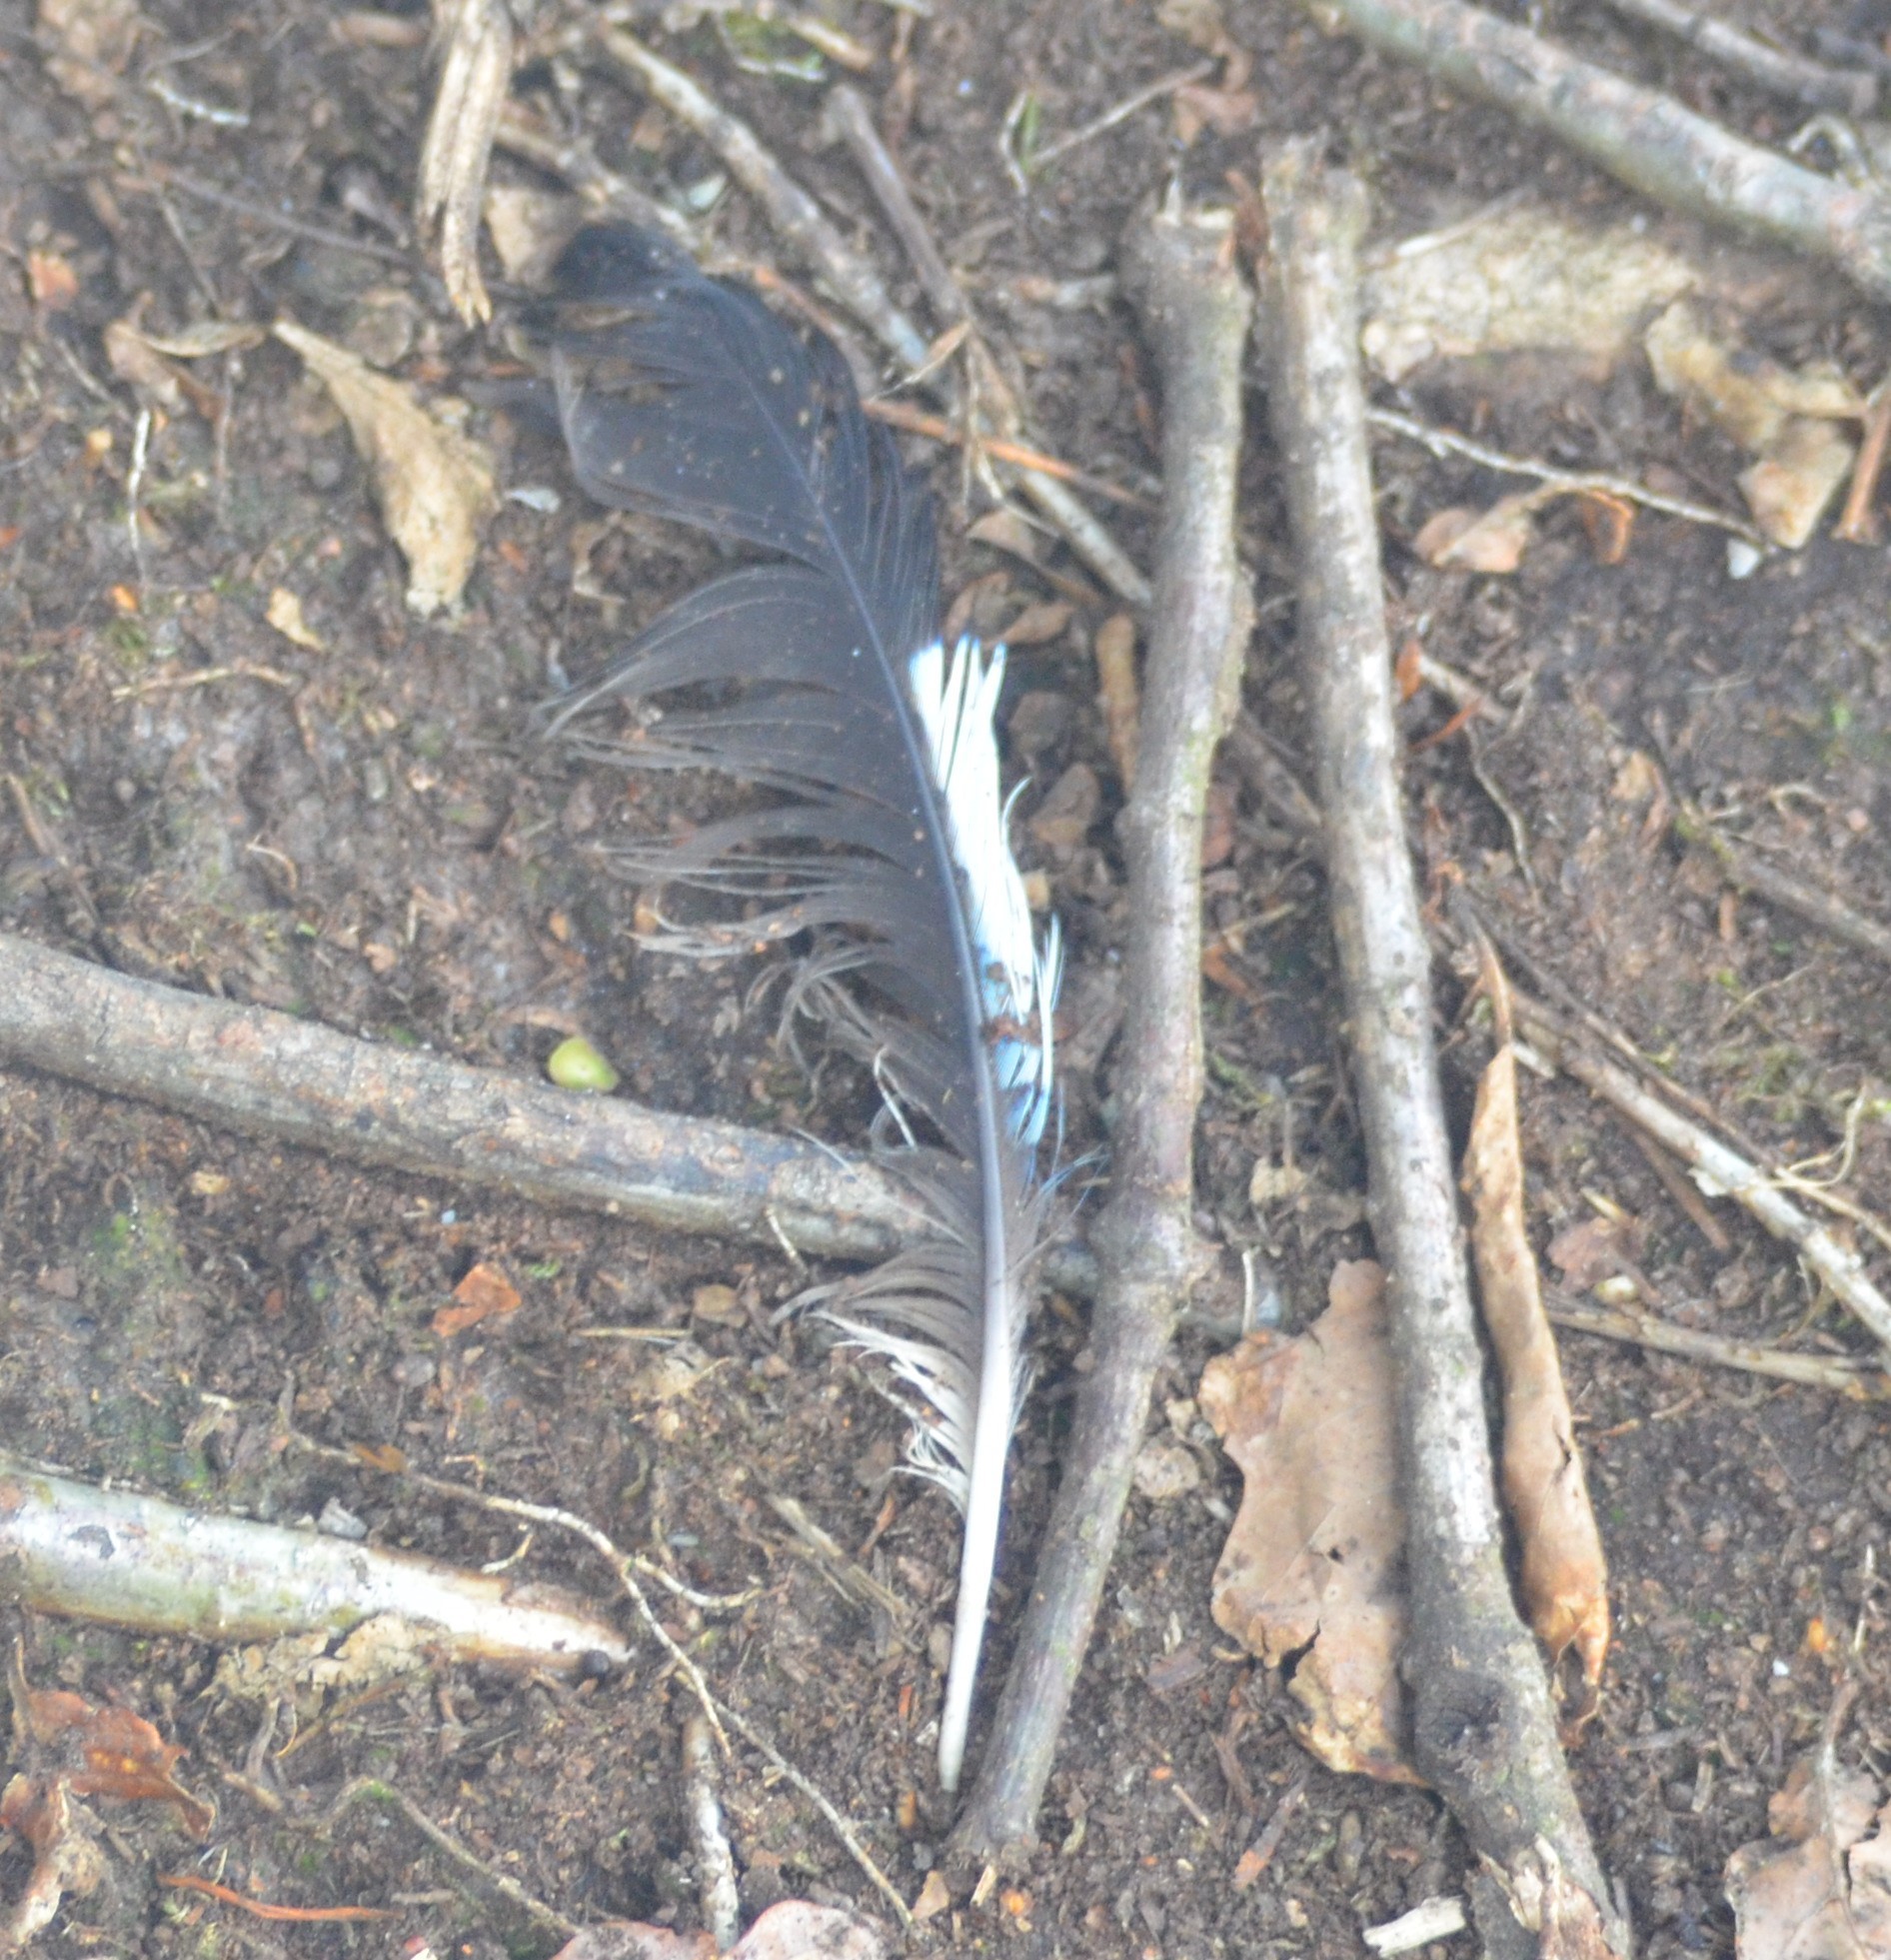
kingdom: Animalia
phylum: Chordata
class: Aves
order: Passeriformes
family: Corvidae
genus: Garrulus
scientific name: Garrulus glandarius
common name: Eurasian jay
